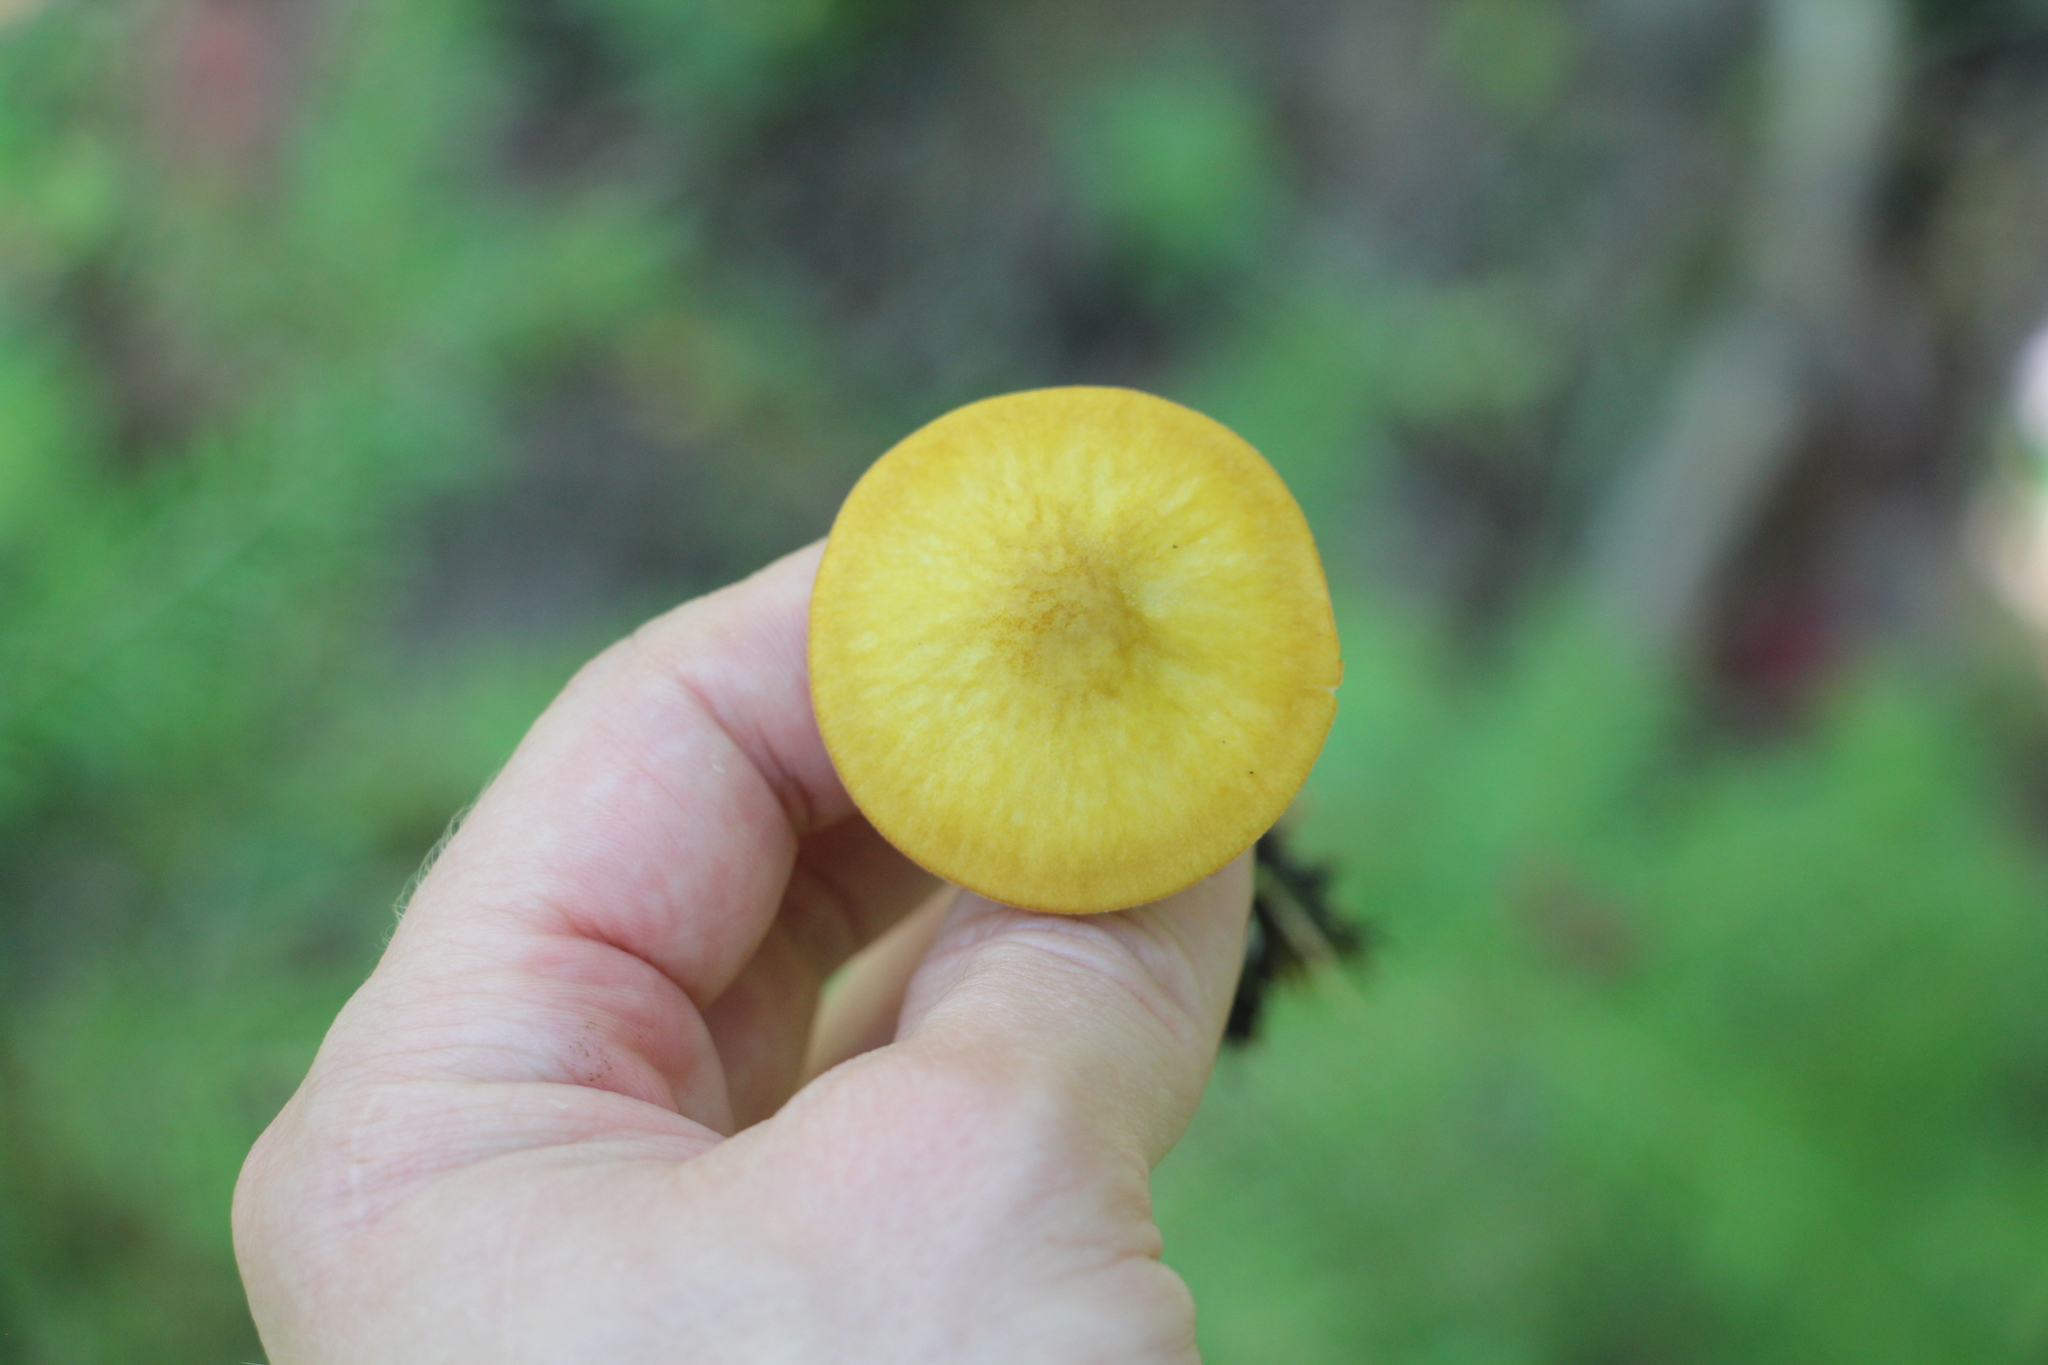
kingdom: Fungi
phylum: Basidiomycota
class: Agaricomycetes
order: Agaricales
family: Pluteaceae
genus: Pluteus
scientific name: Pluteus leoninus
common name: Lion shield
